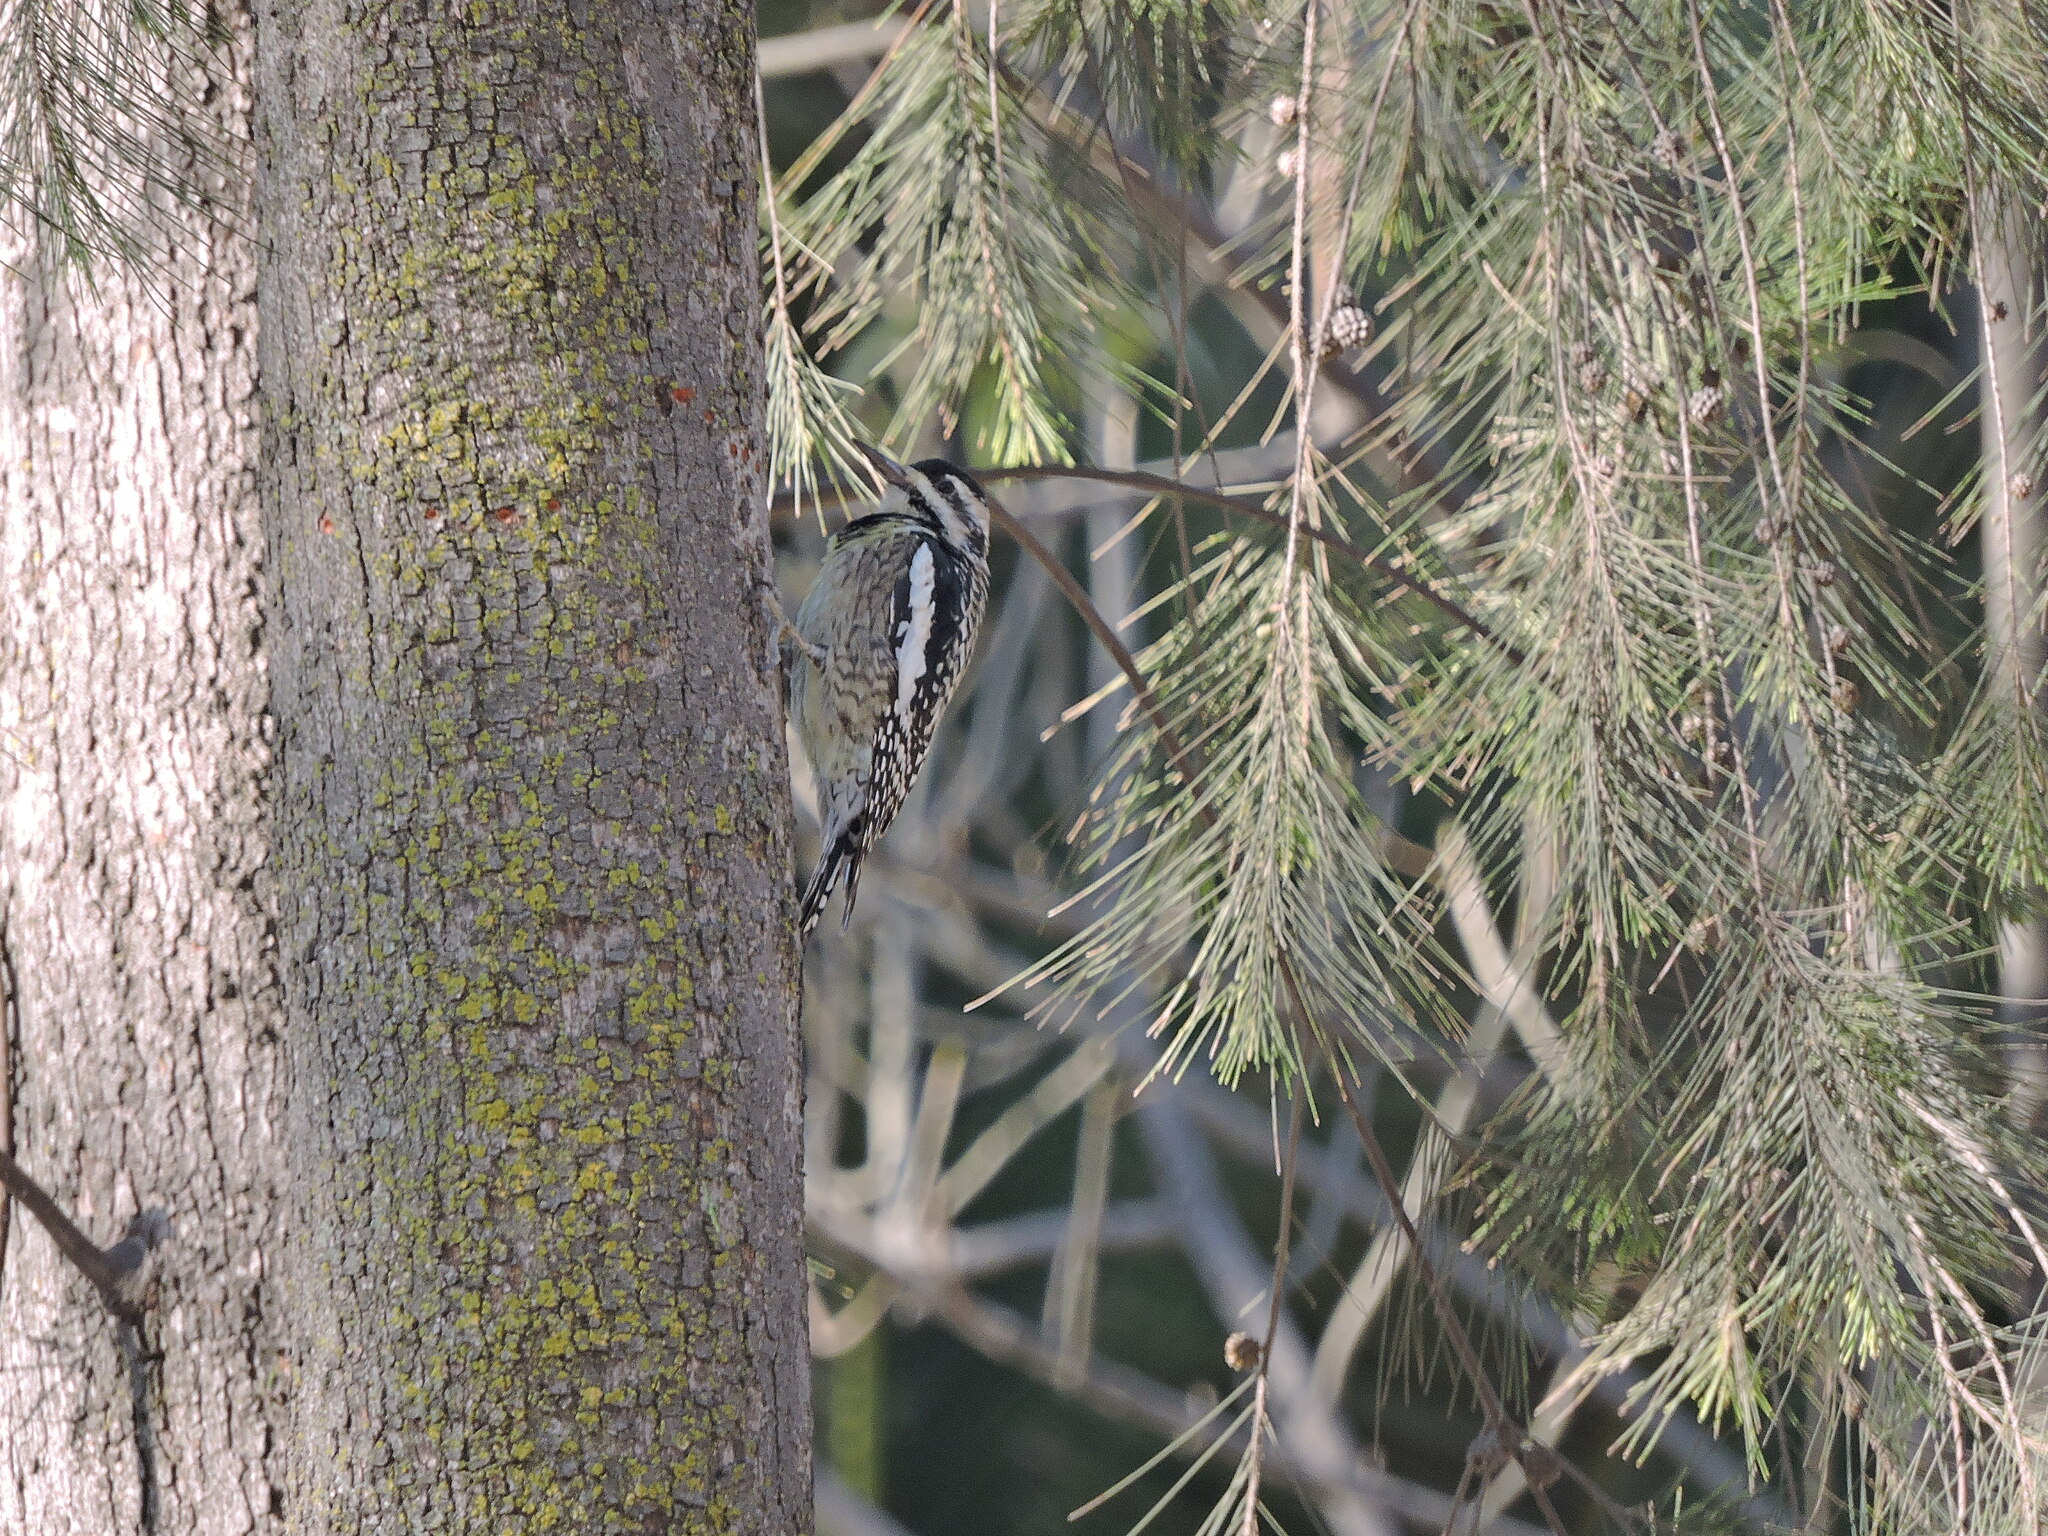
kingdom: Animalia
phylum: Chordata
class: Aves
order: Piciformes
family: Picidae
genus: Sphyrapicus
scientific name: Sphyrapicus varius
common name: Yellow-bellied sapsucker
